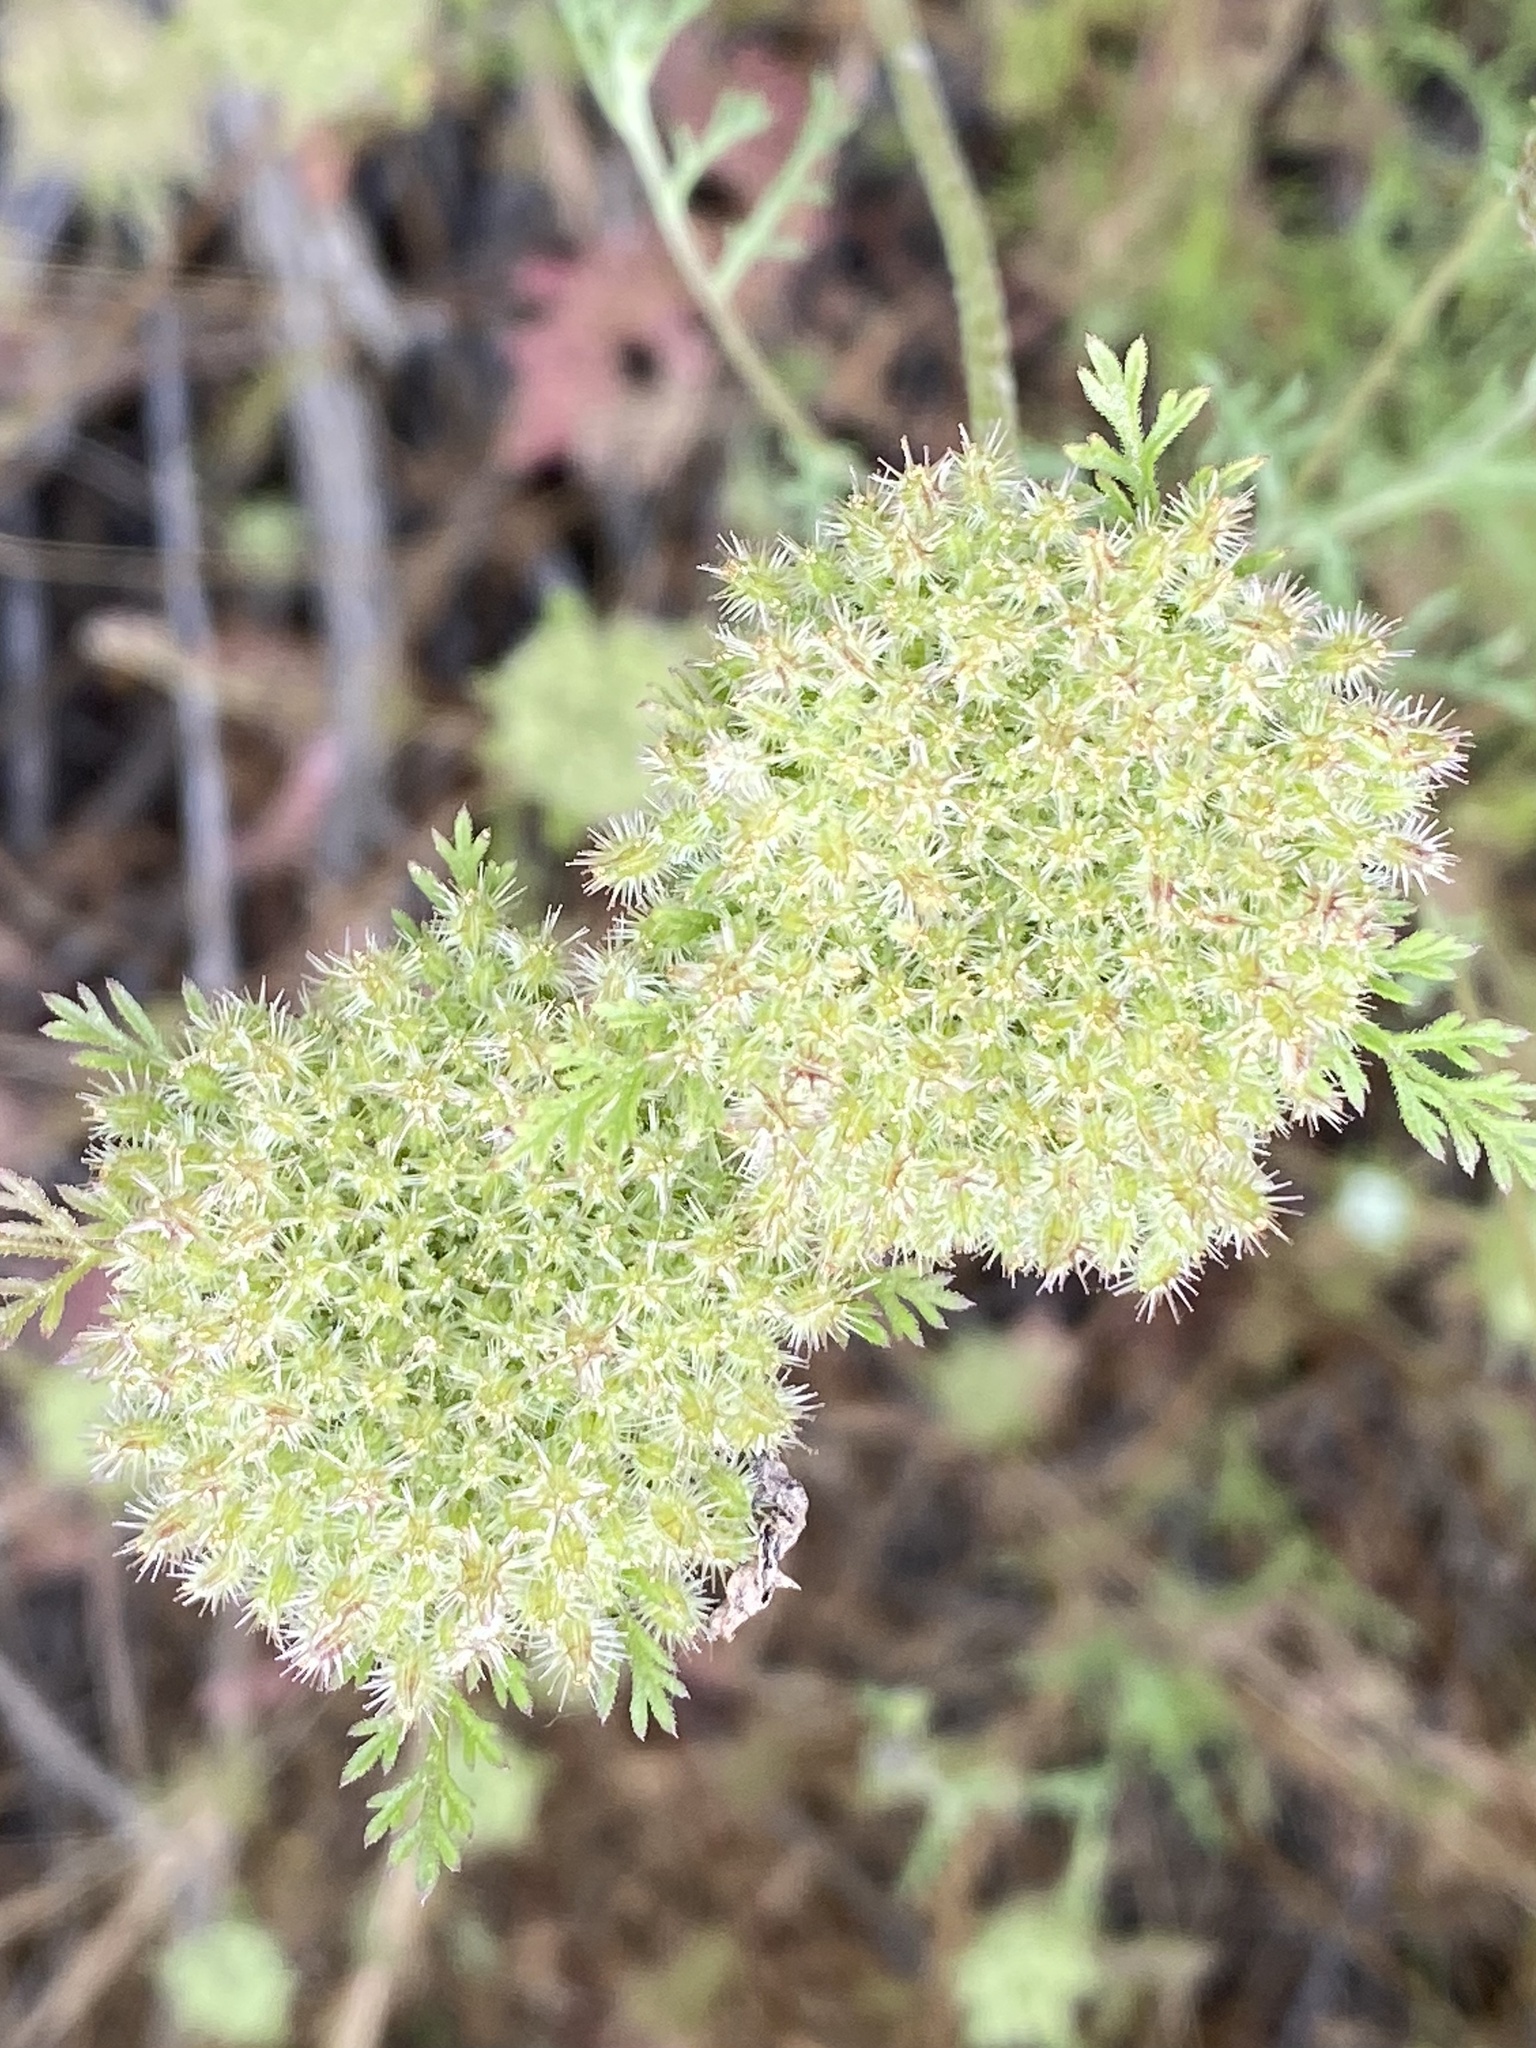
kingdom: Plantae
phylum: Tracheophyta
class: Magnoliopsida
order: Apiales
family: Apiaceae
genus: Daucus
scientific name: Daucus pusillus
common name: Southwest wild carrot
